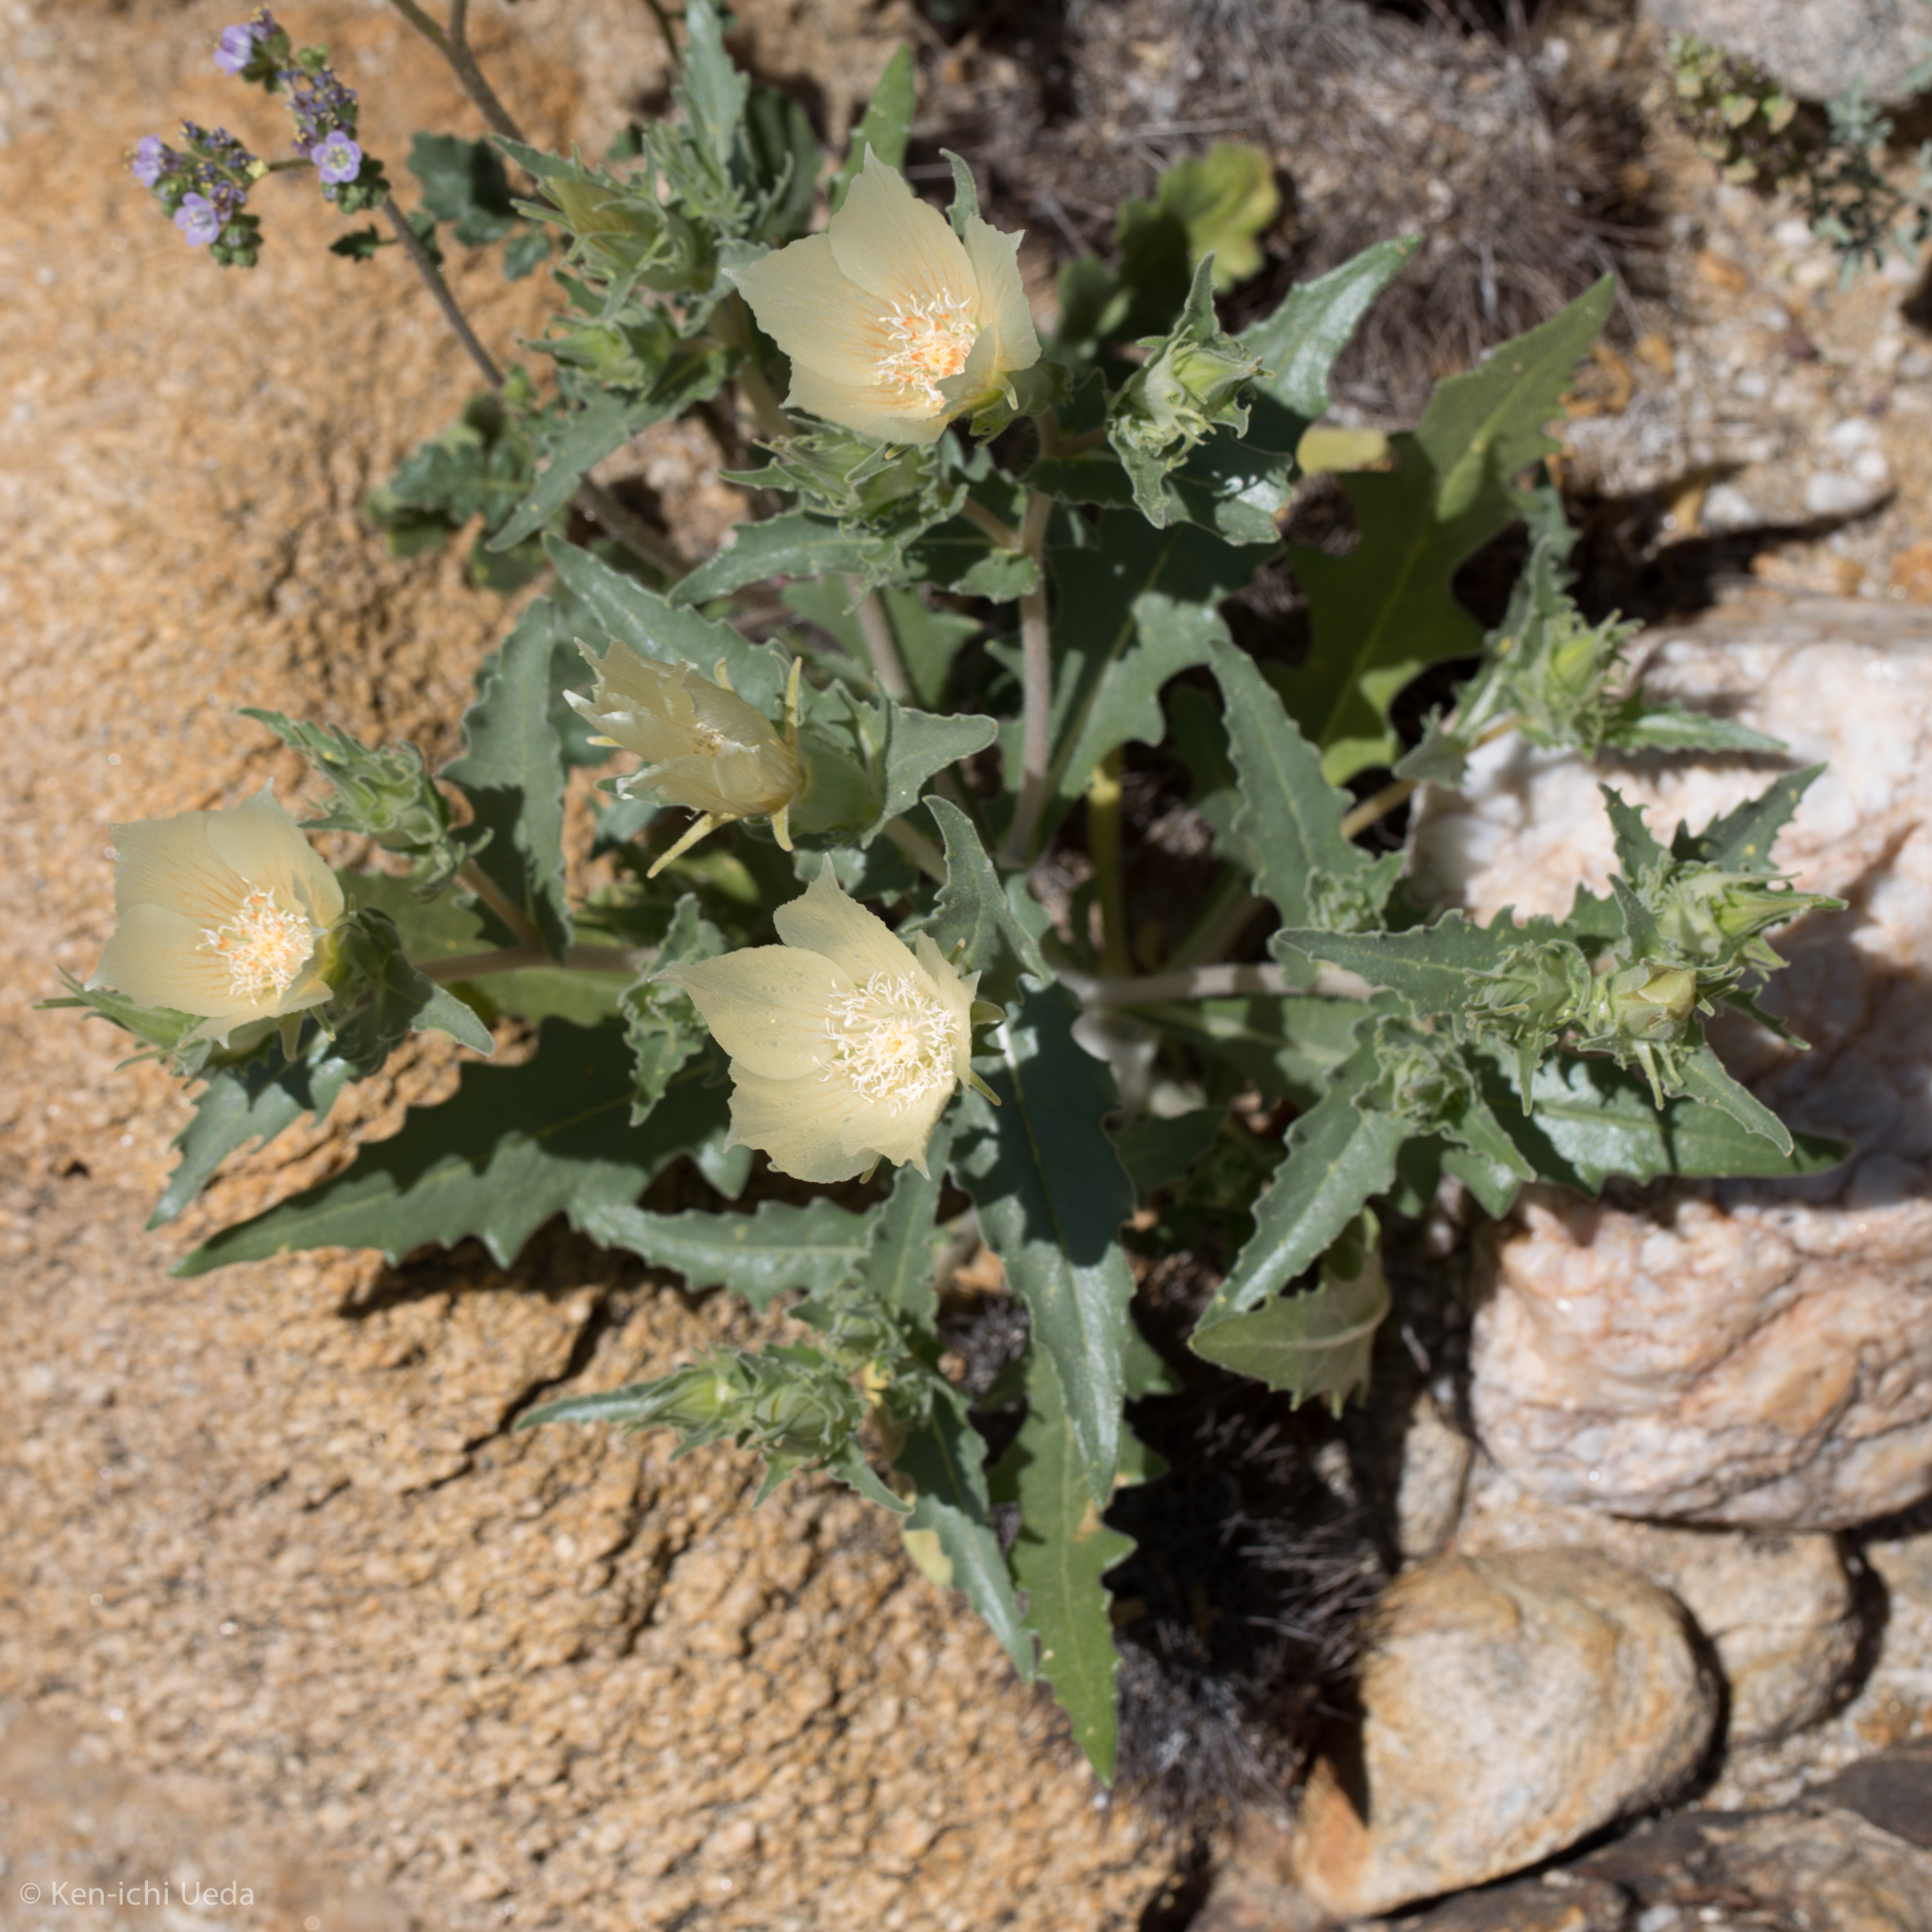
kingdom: Plantae
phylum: Tracheophyta
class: Magnoliopsida
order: Cornales
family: Loasaceae
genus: Mentzelia
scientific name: Mentzelia involucrata
